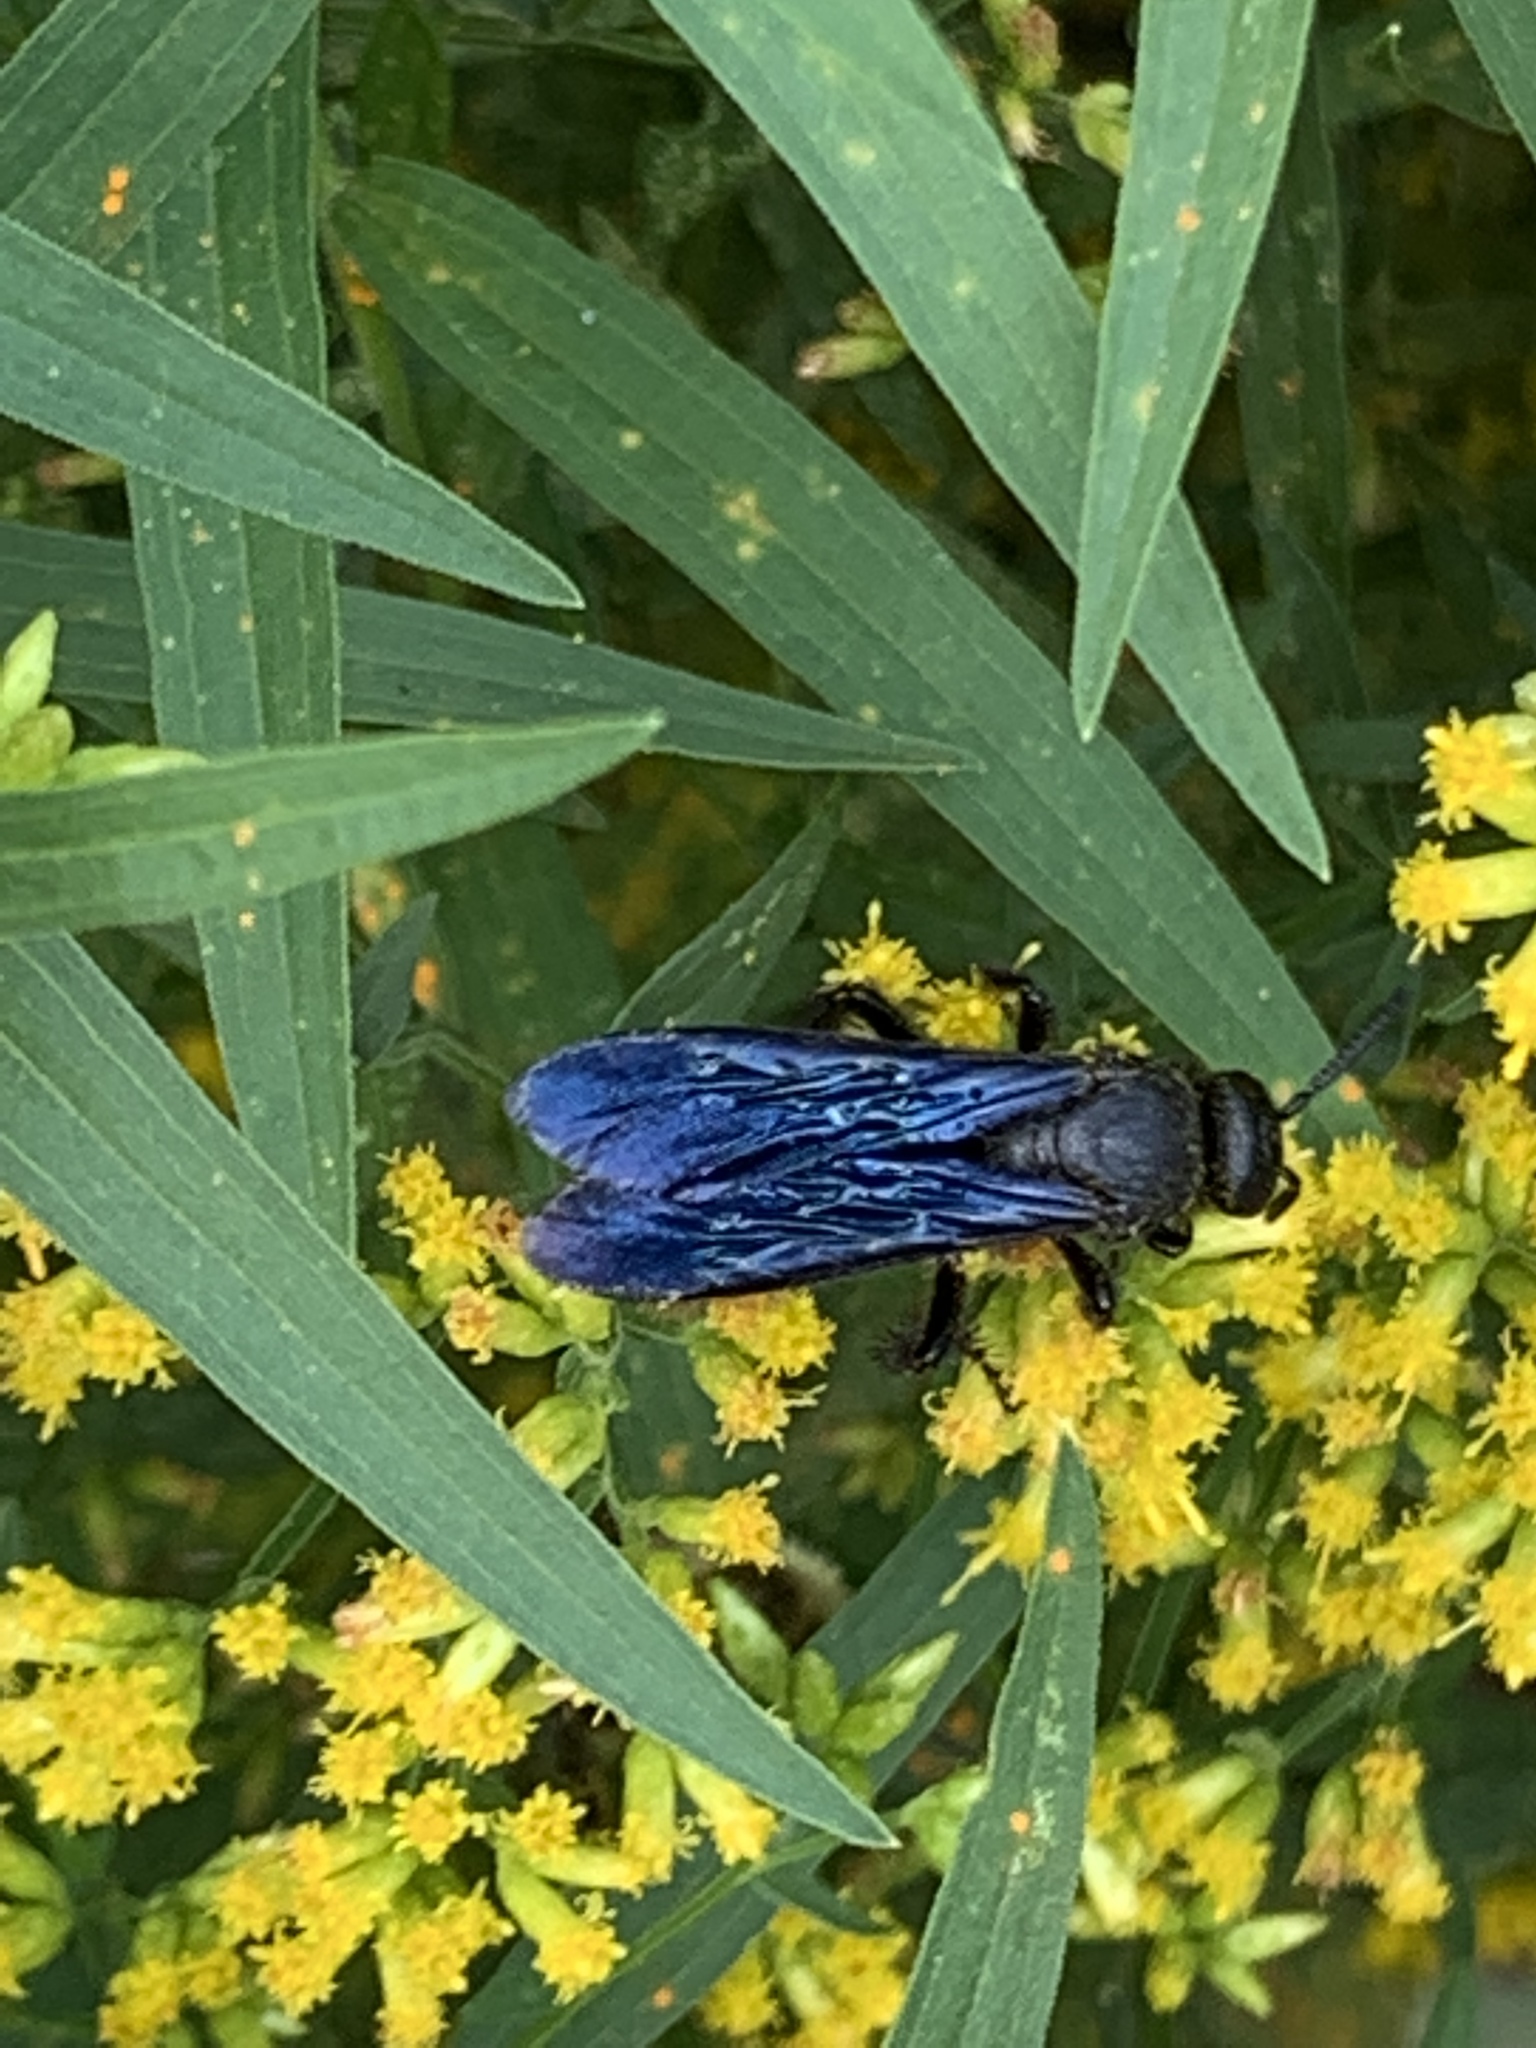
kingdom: Animalia
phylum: Arthropoda
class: Insecta
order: Hymenoptera
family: Scoliidae
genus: Scolia
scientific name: Scolia dubia
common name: Blue-winged scoliid wasp
